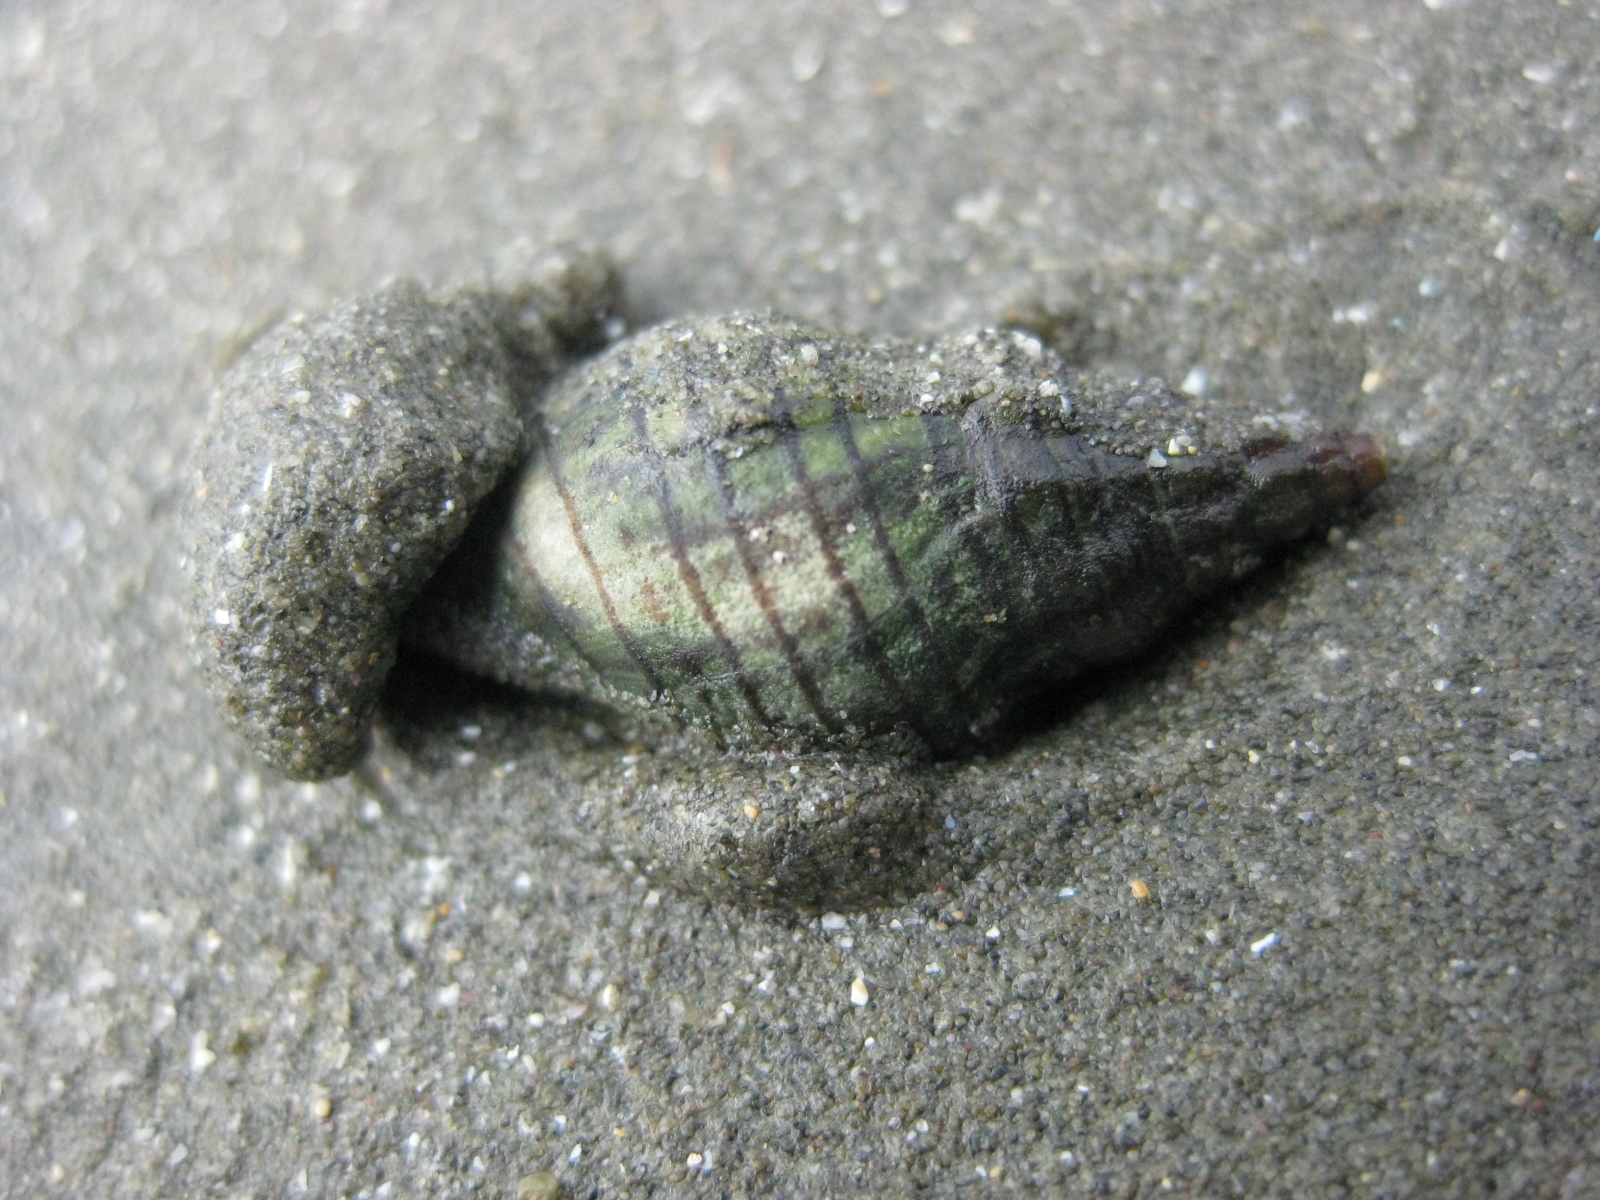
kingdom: Animalia
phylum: Mollusca
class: Gastropoda
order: Neogastropoda
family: Cominellidae
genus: Cominella
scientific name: Cominella virgata
